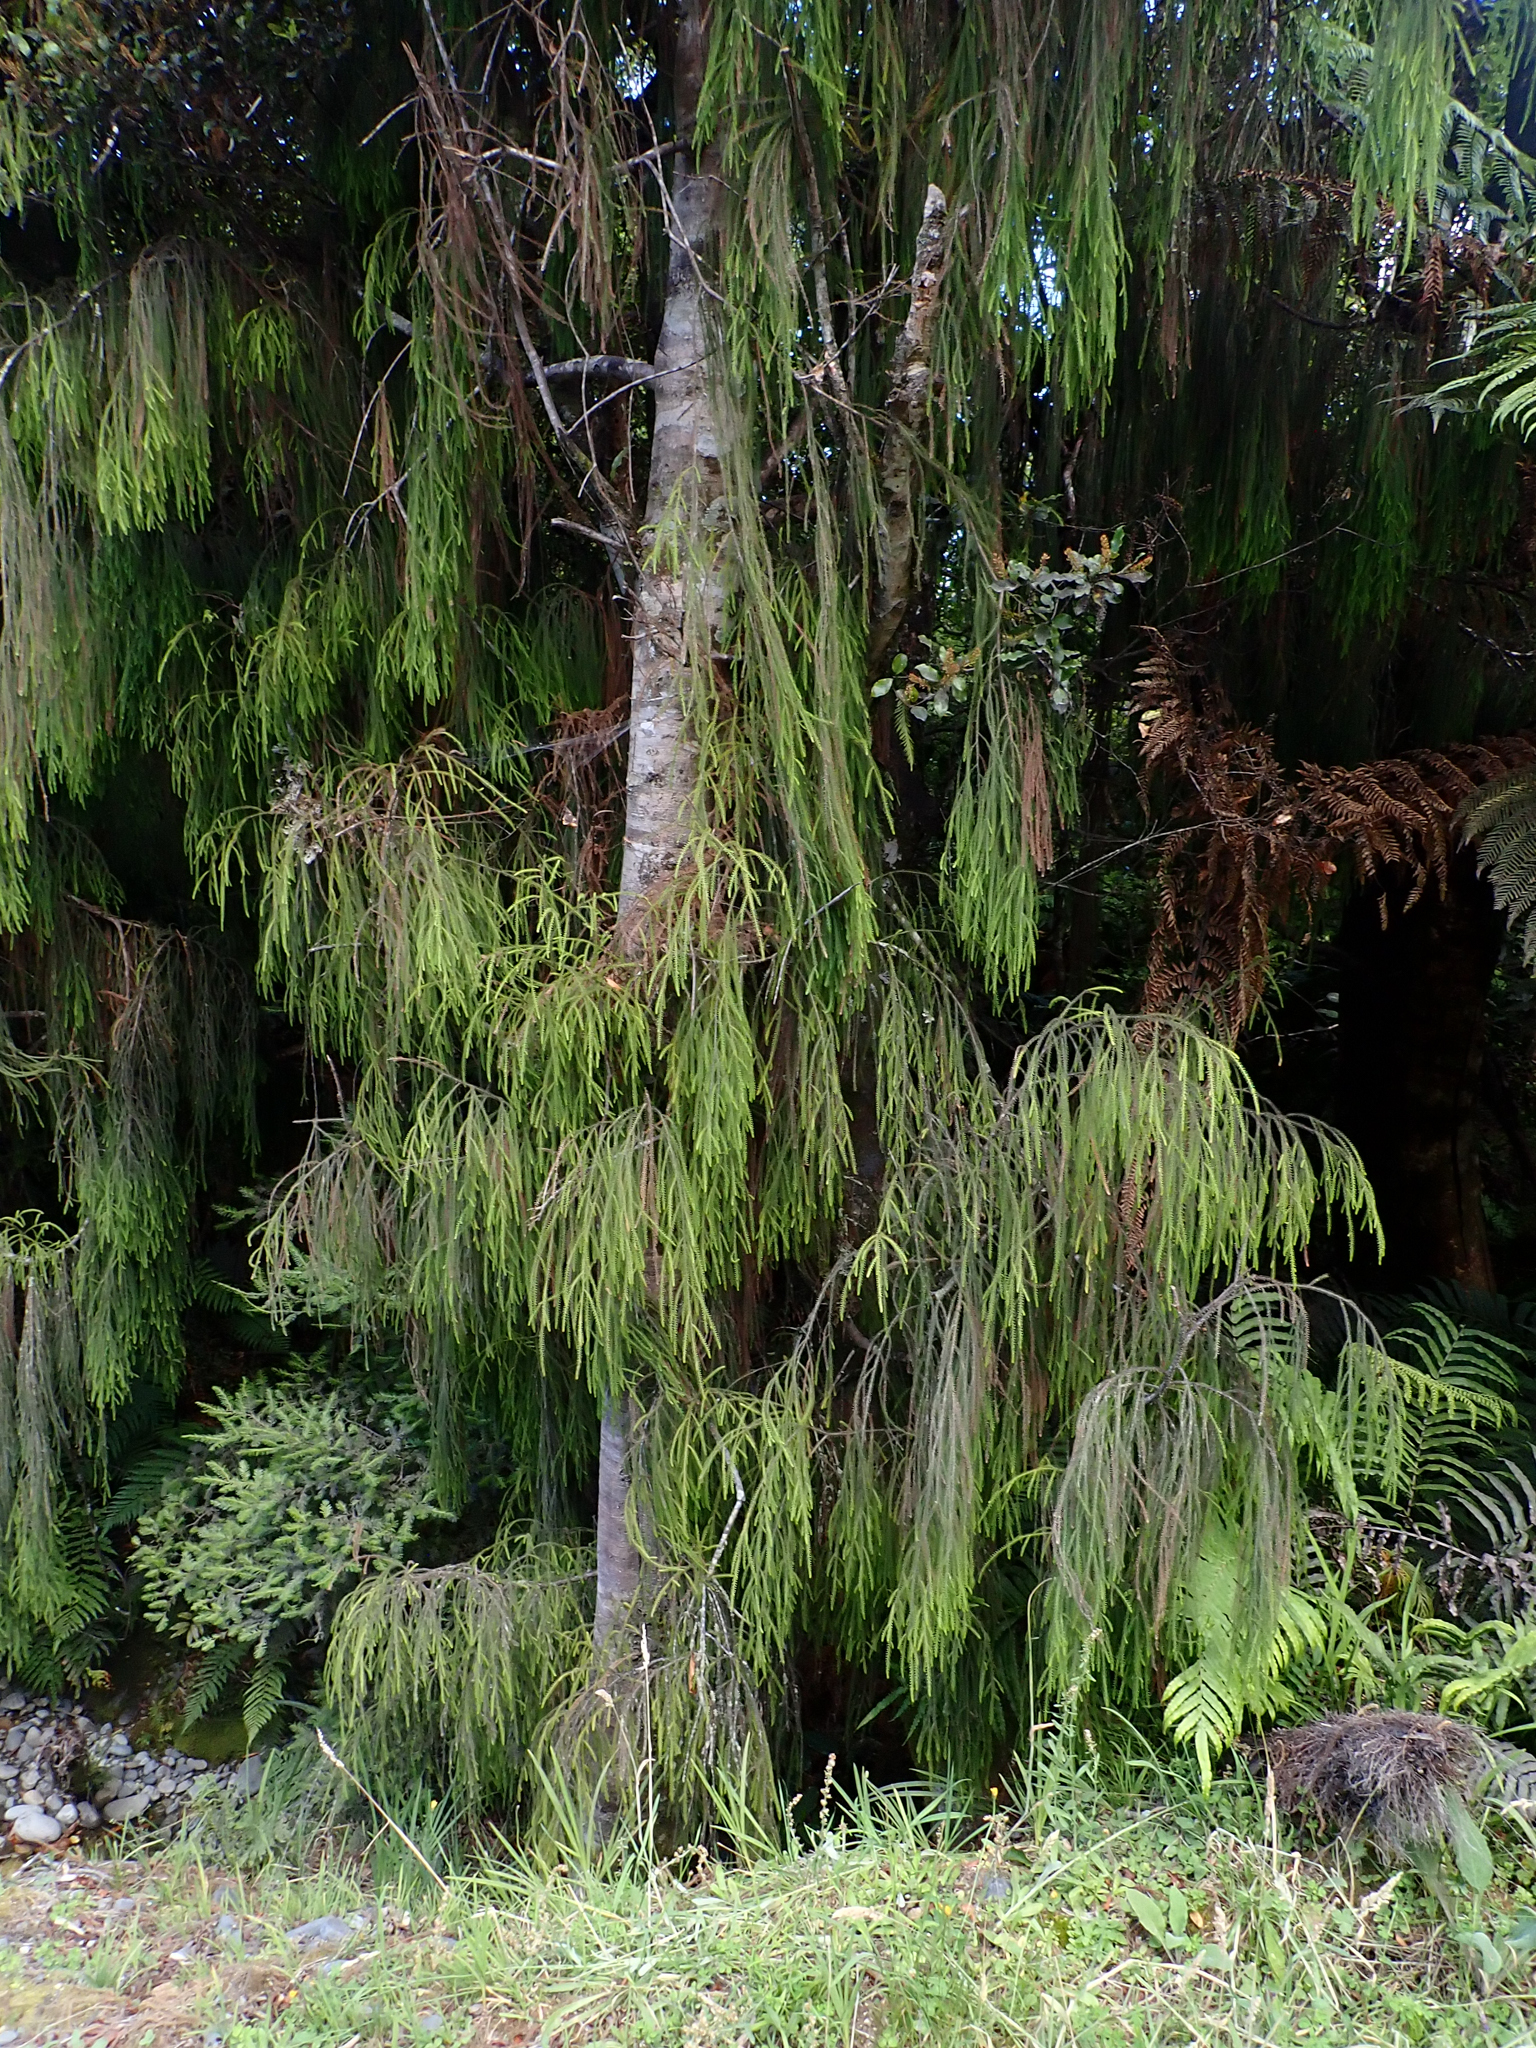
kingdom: Plantae
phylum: Tracheophyta
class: Pinopsida
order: Pinales
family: Podocarpaceae
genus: Dacrydium
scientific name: Dacrydium cupressinum
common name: Red pine
